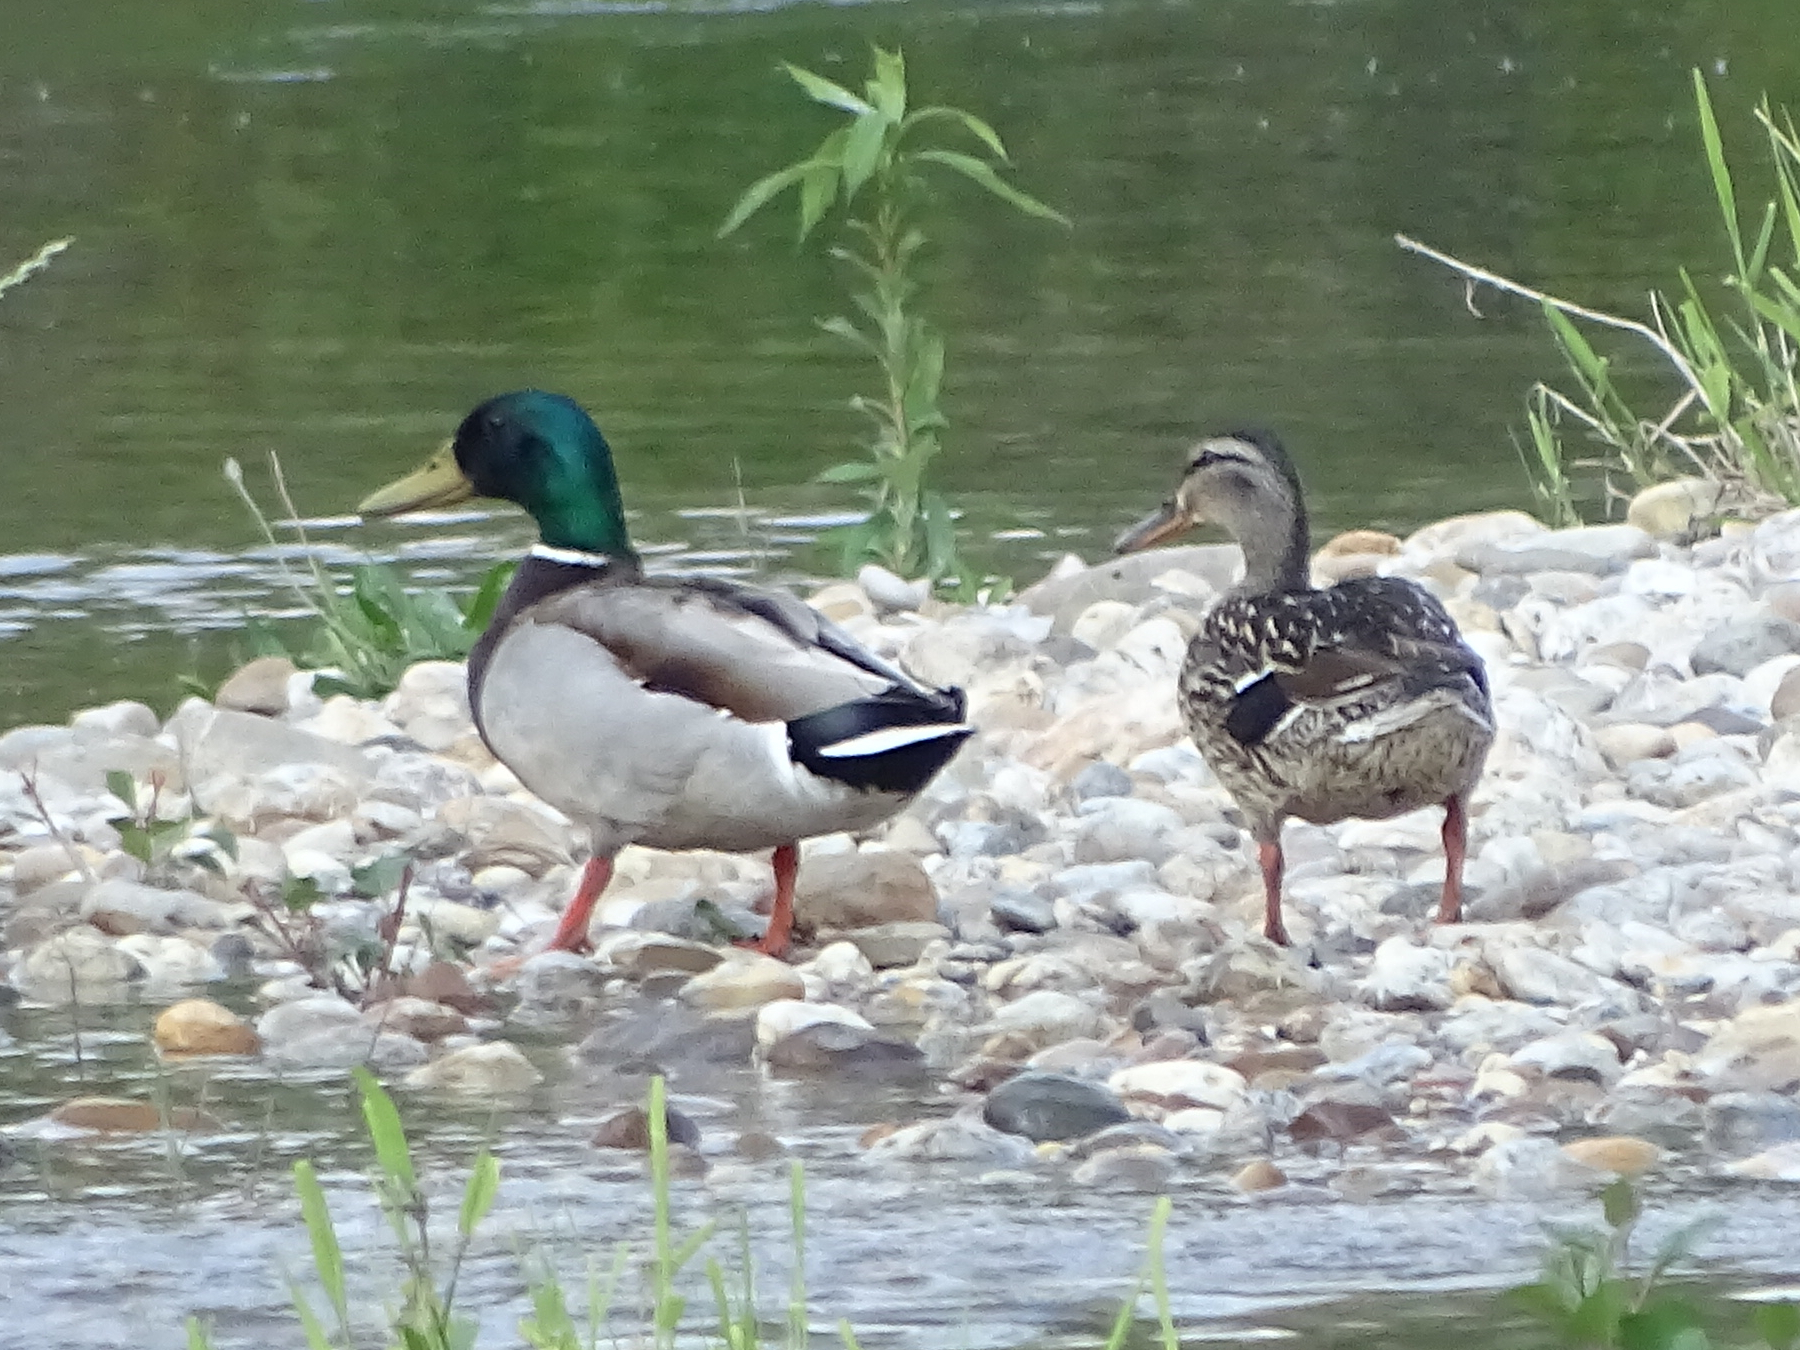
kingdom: Animalia
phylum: Chordata
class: Aves
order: Anseriformes
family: Anatidae
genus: Anas
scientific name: Anas platyrhynchos
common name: Mallard
